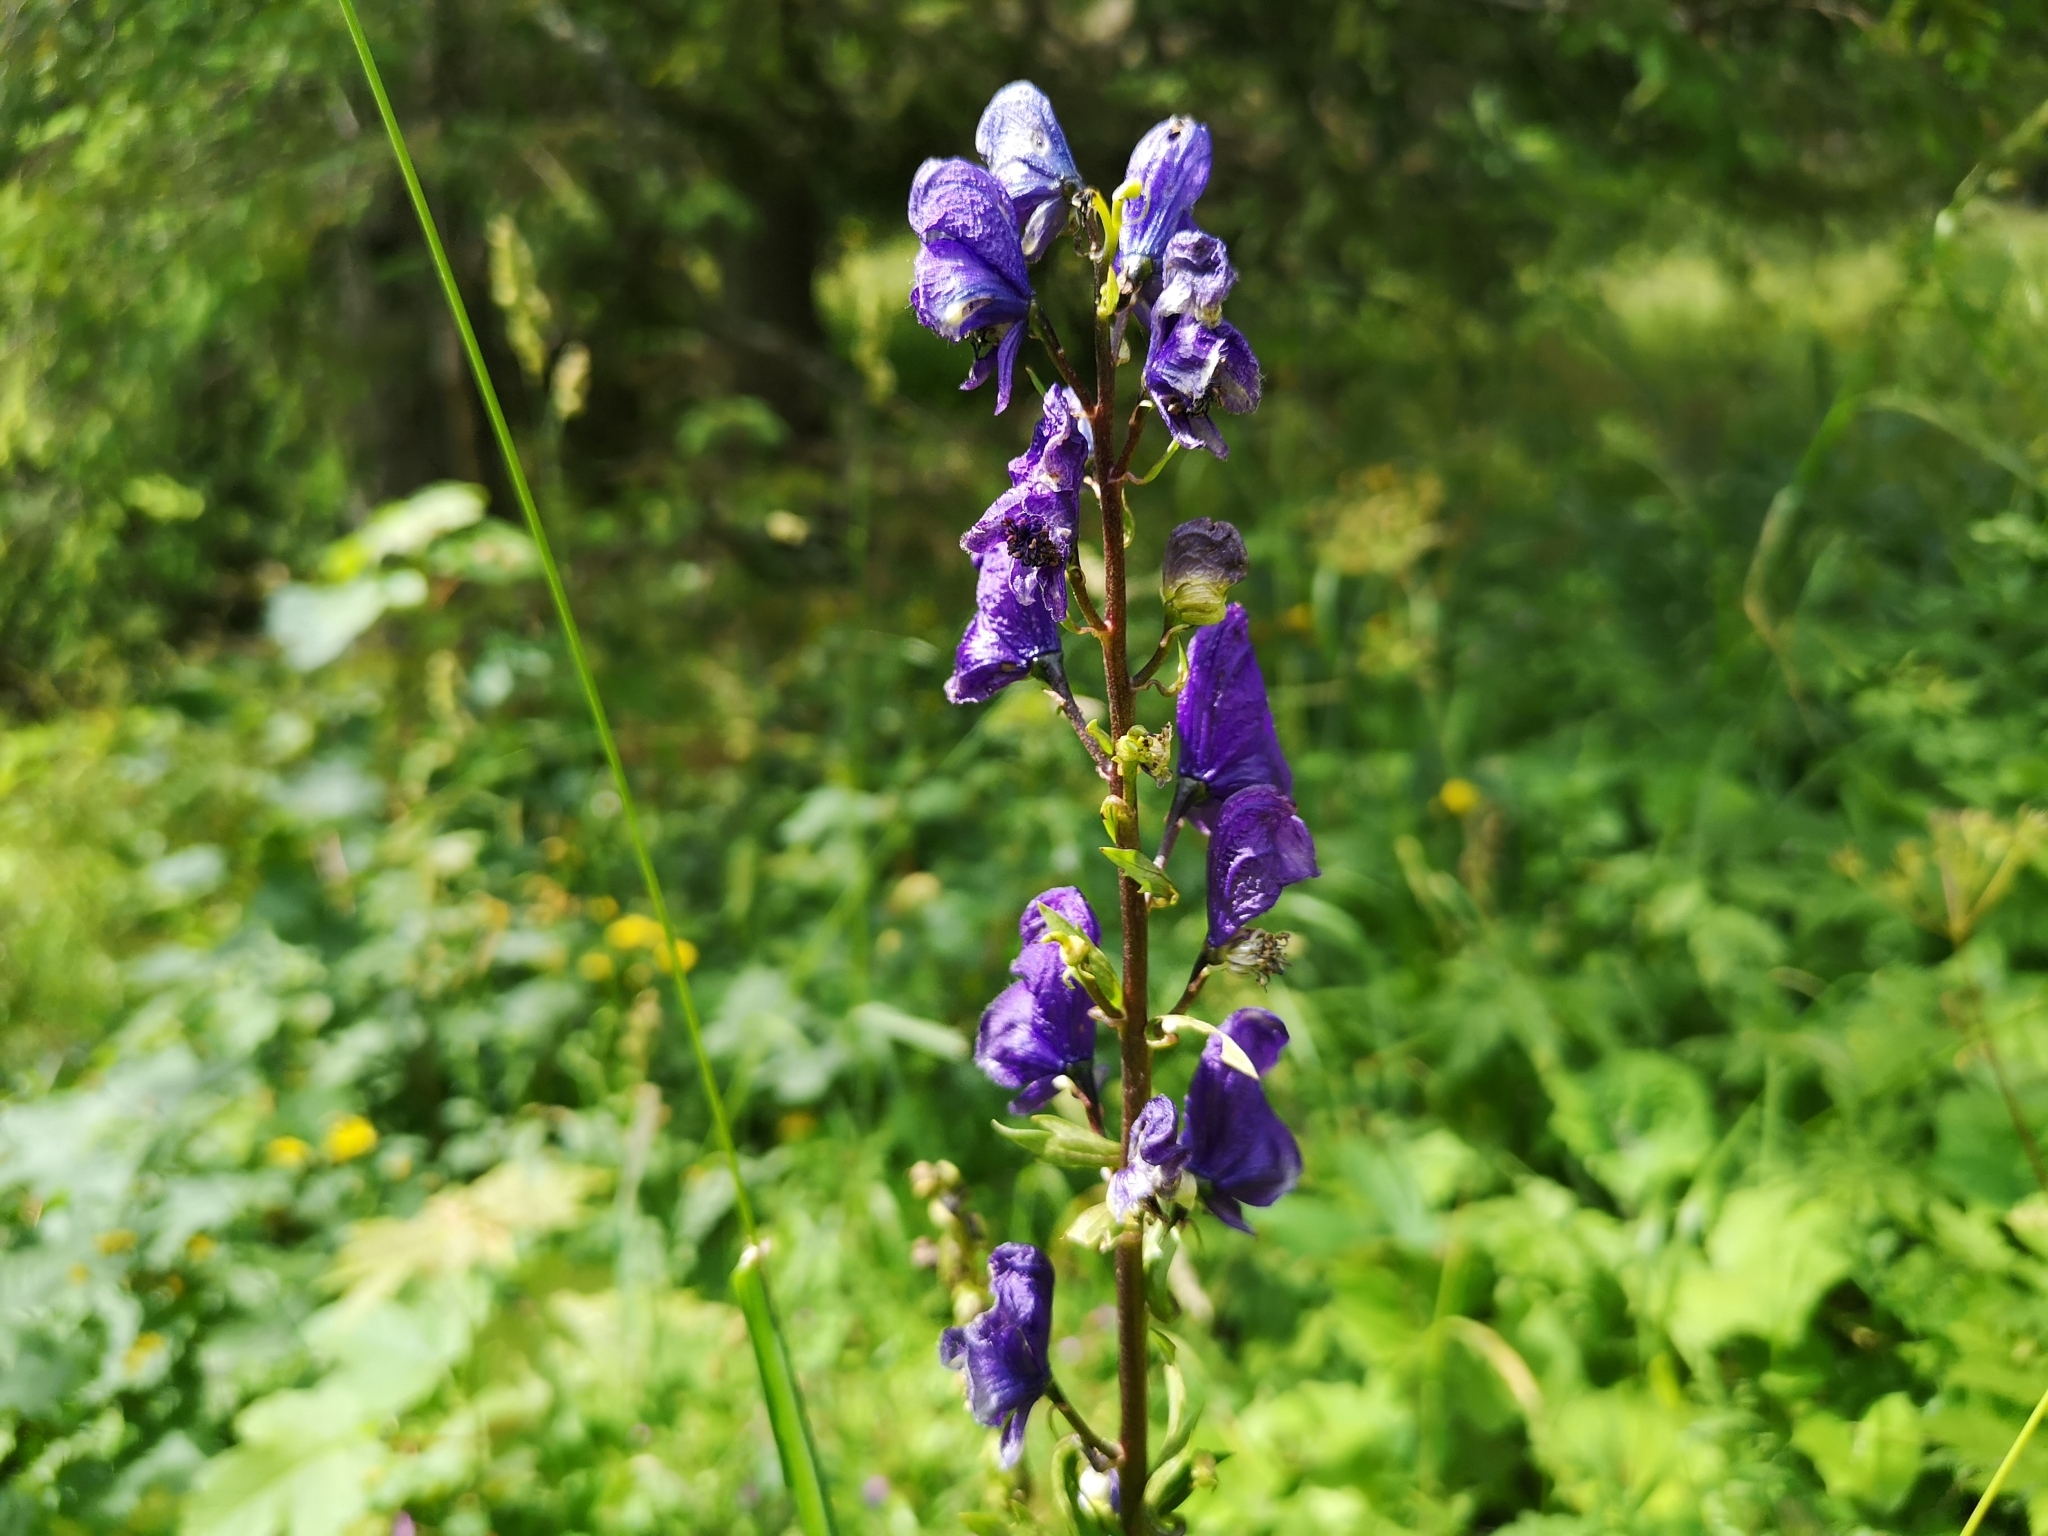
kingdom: Plantae
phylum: Tracheophyta
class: Magnoliopsida
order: Ranunculales
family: Ranunculaceae
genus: Aconitum
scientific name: Aconitum firmum
